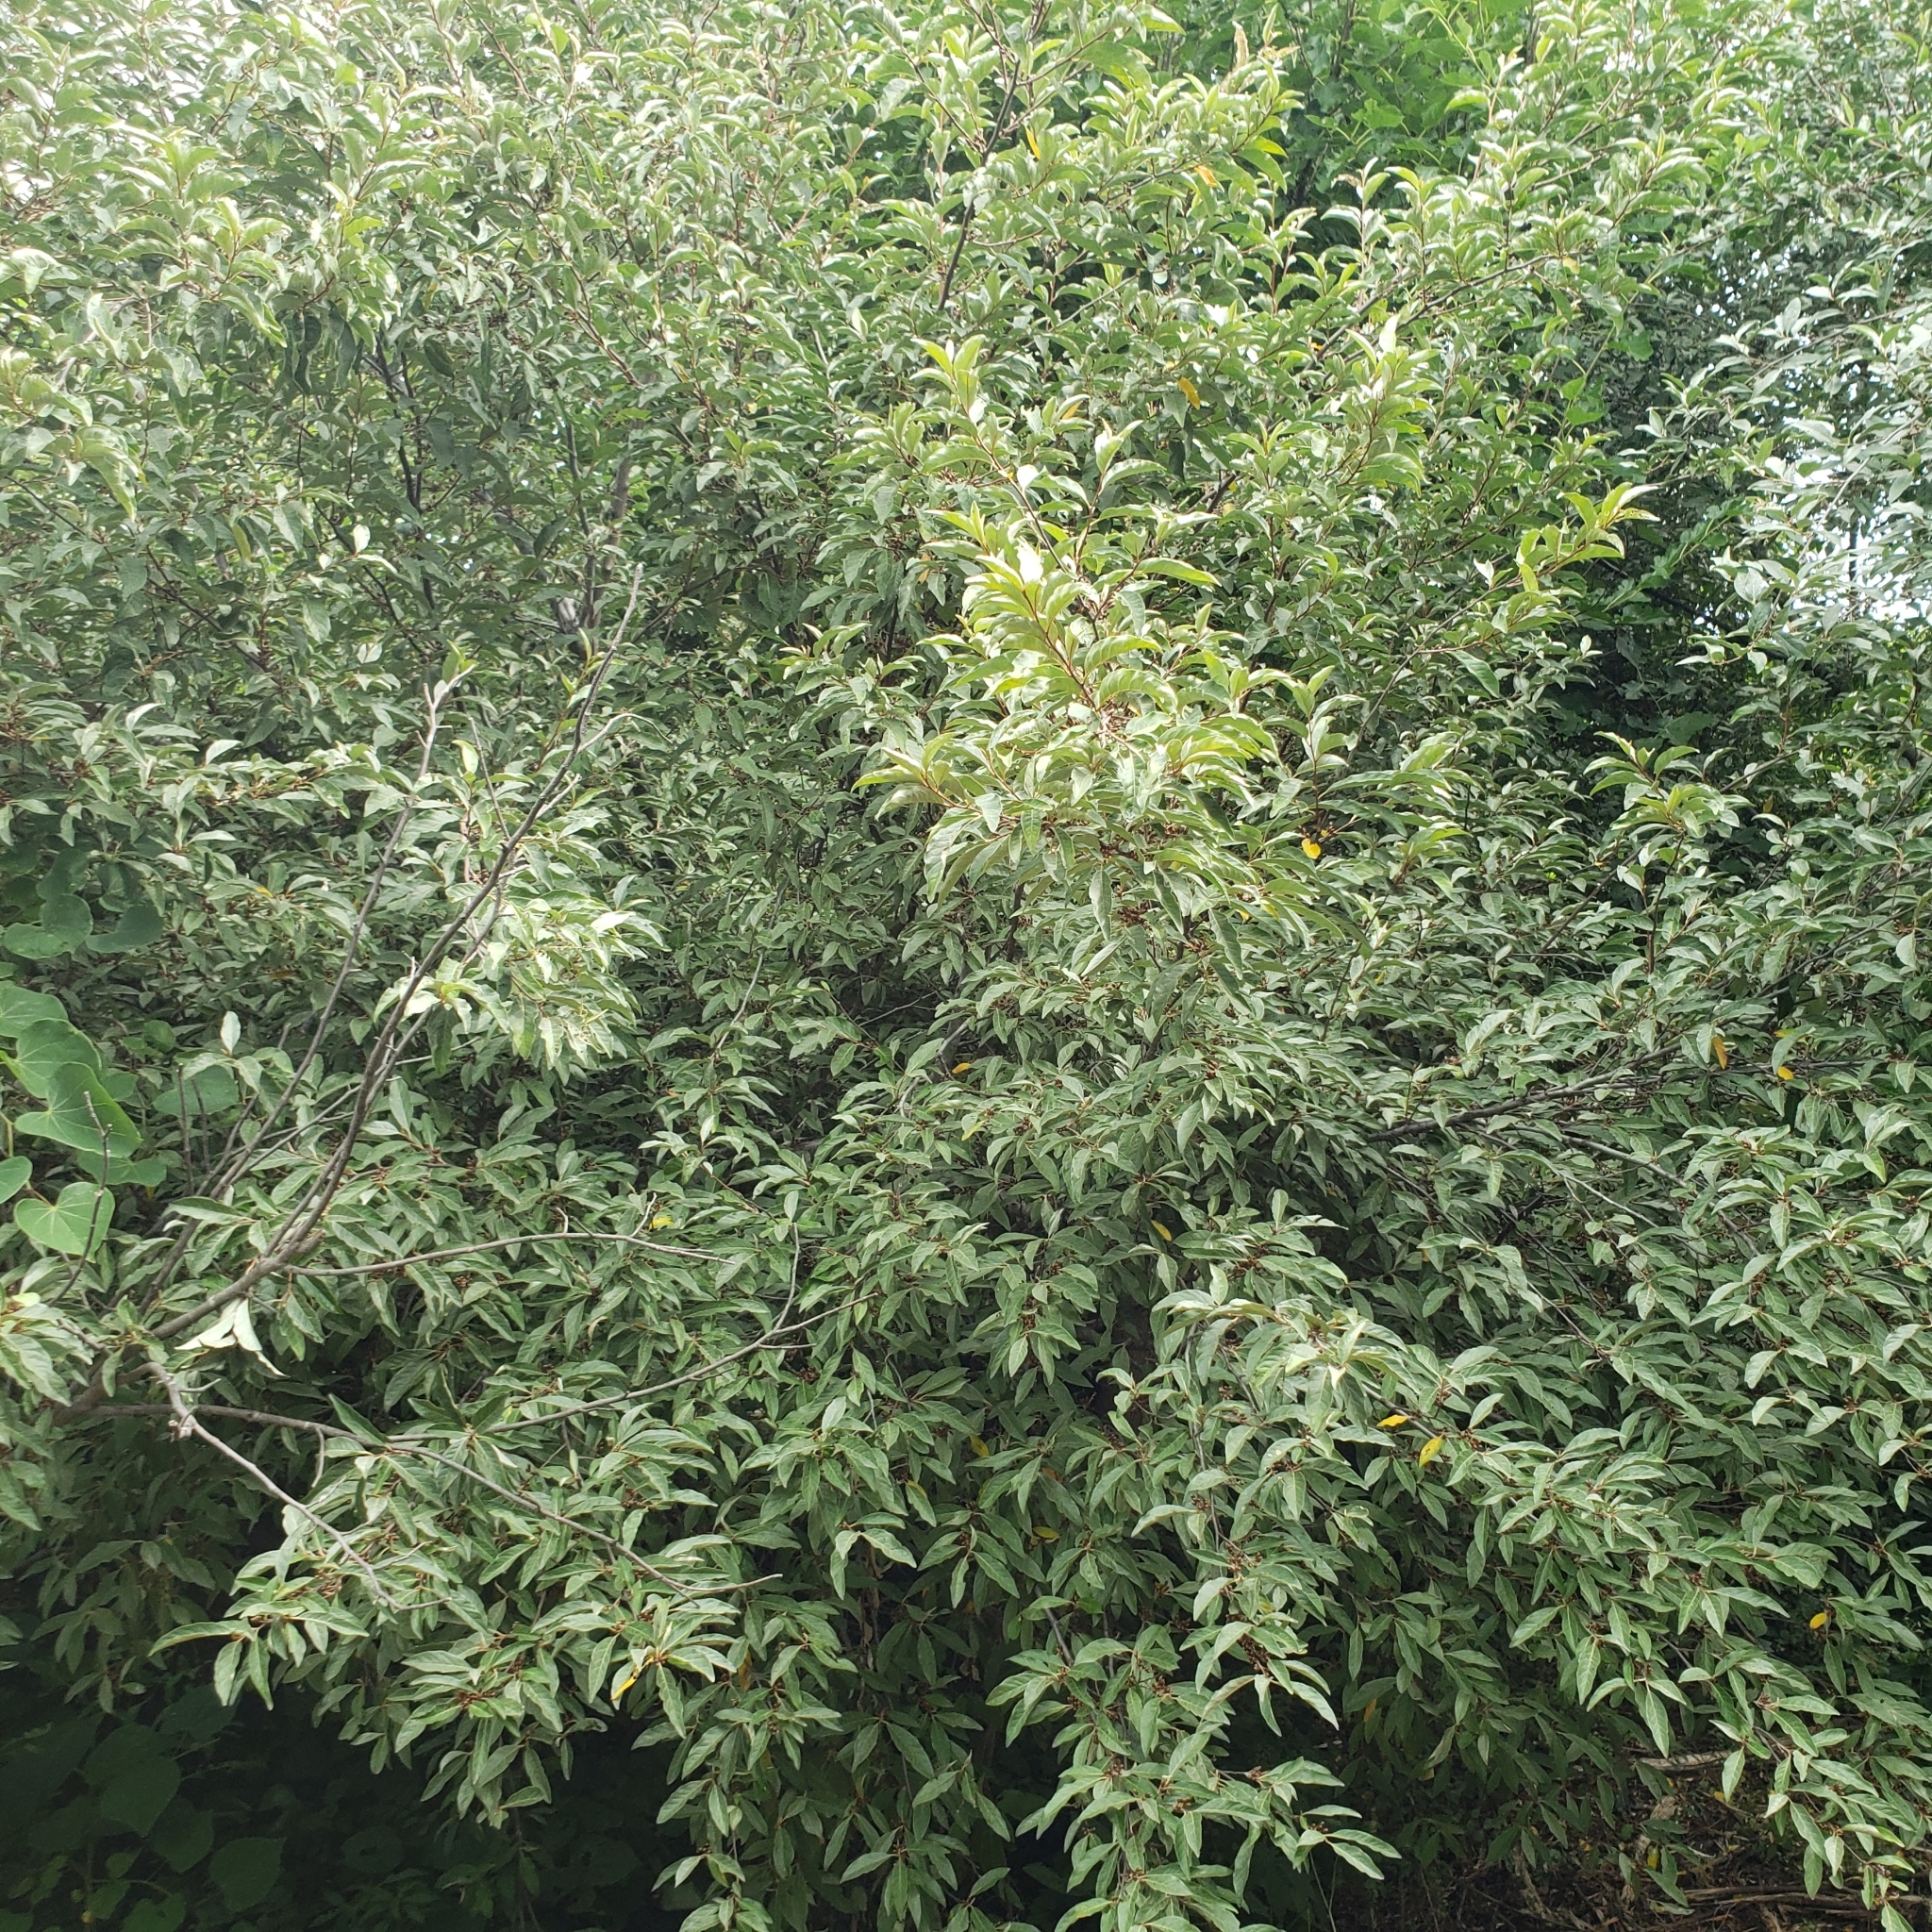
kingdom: Plantae
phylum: Tracheophyta
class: Magnoliopsida
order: Rosales
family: Elaeagnaceae
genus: Elaeagnus
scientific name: Elaeagnus umbellata
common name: Autumn olive
